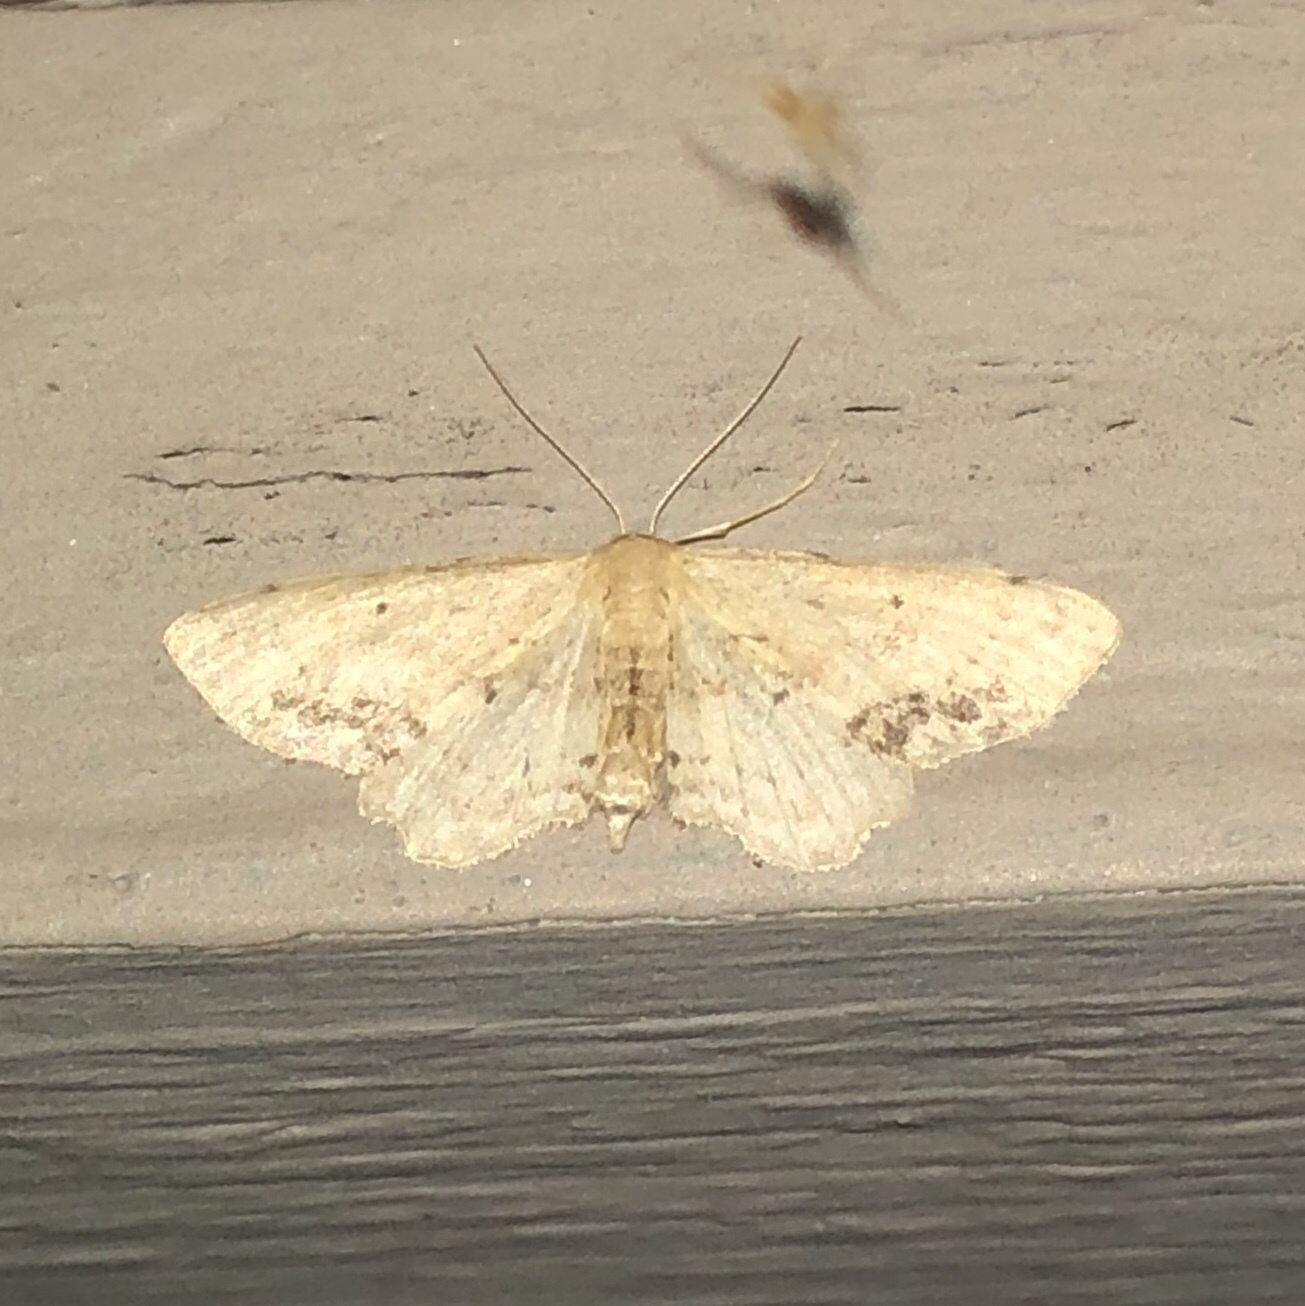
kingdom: Animalia
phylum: Arthropoda
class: Insecta
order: Lepidoptera
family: Geometridae
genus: Idaea
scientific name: Idaea dimidiata
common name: Single-dotted wave
